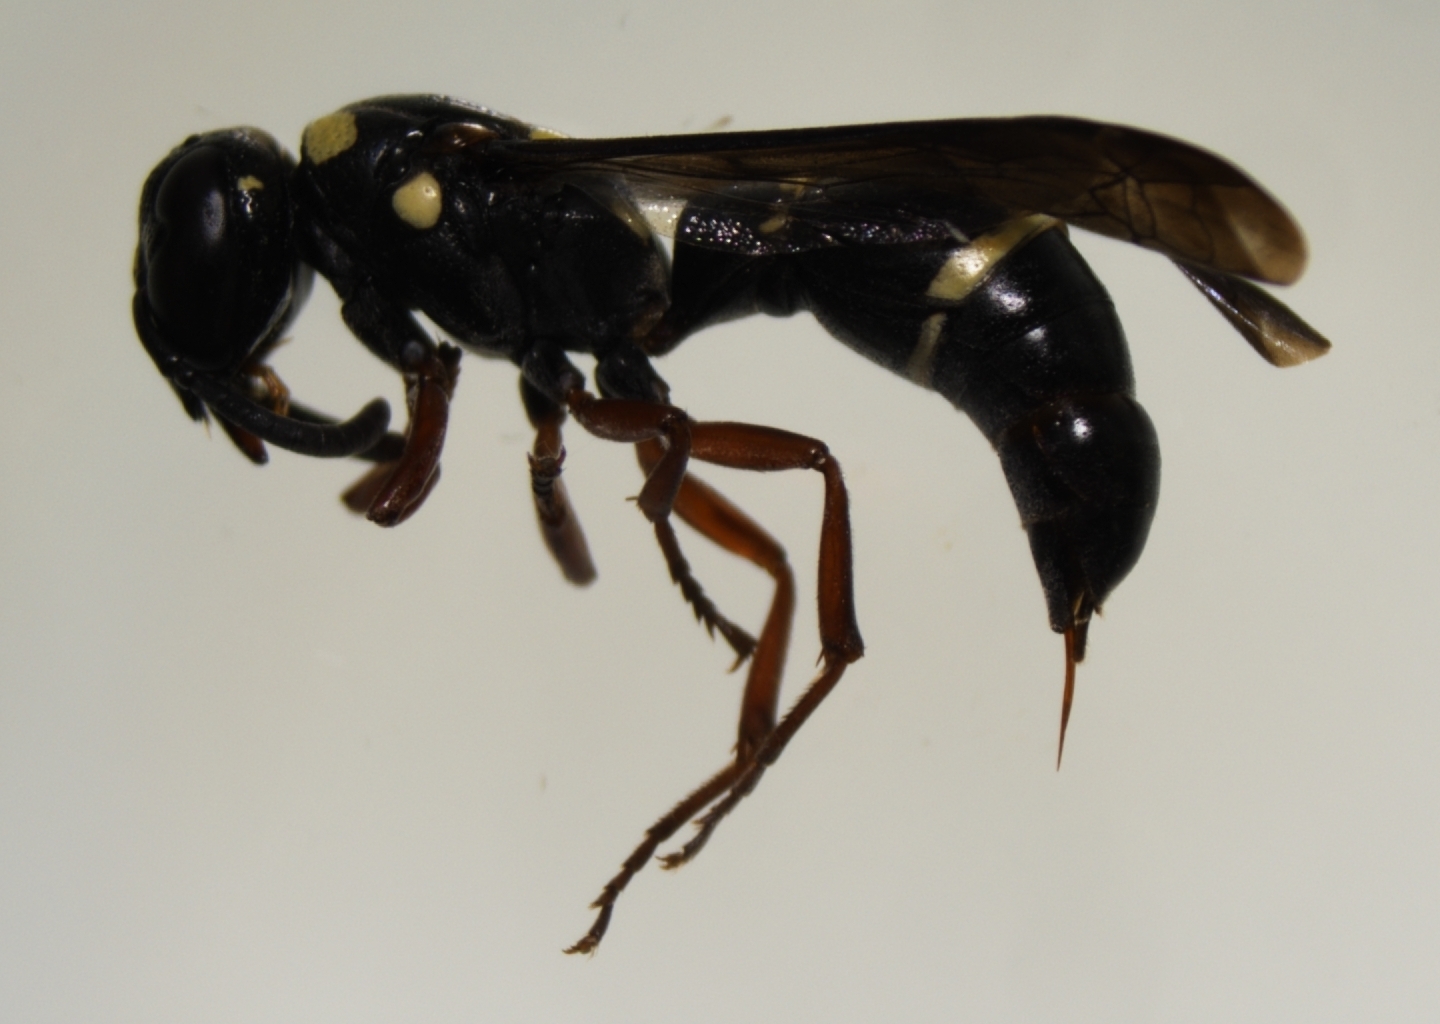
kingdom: Animalia
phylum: Arthropoda
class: Insecta
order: Hymenoptera
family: Eumenidae
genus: Parodynerus
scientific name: Parodynerus bicinctus
